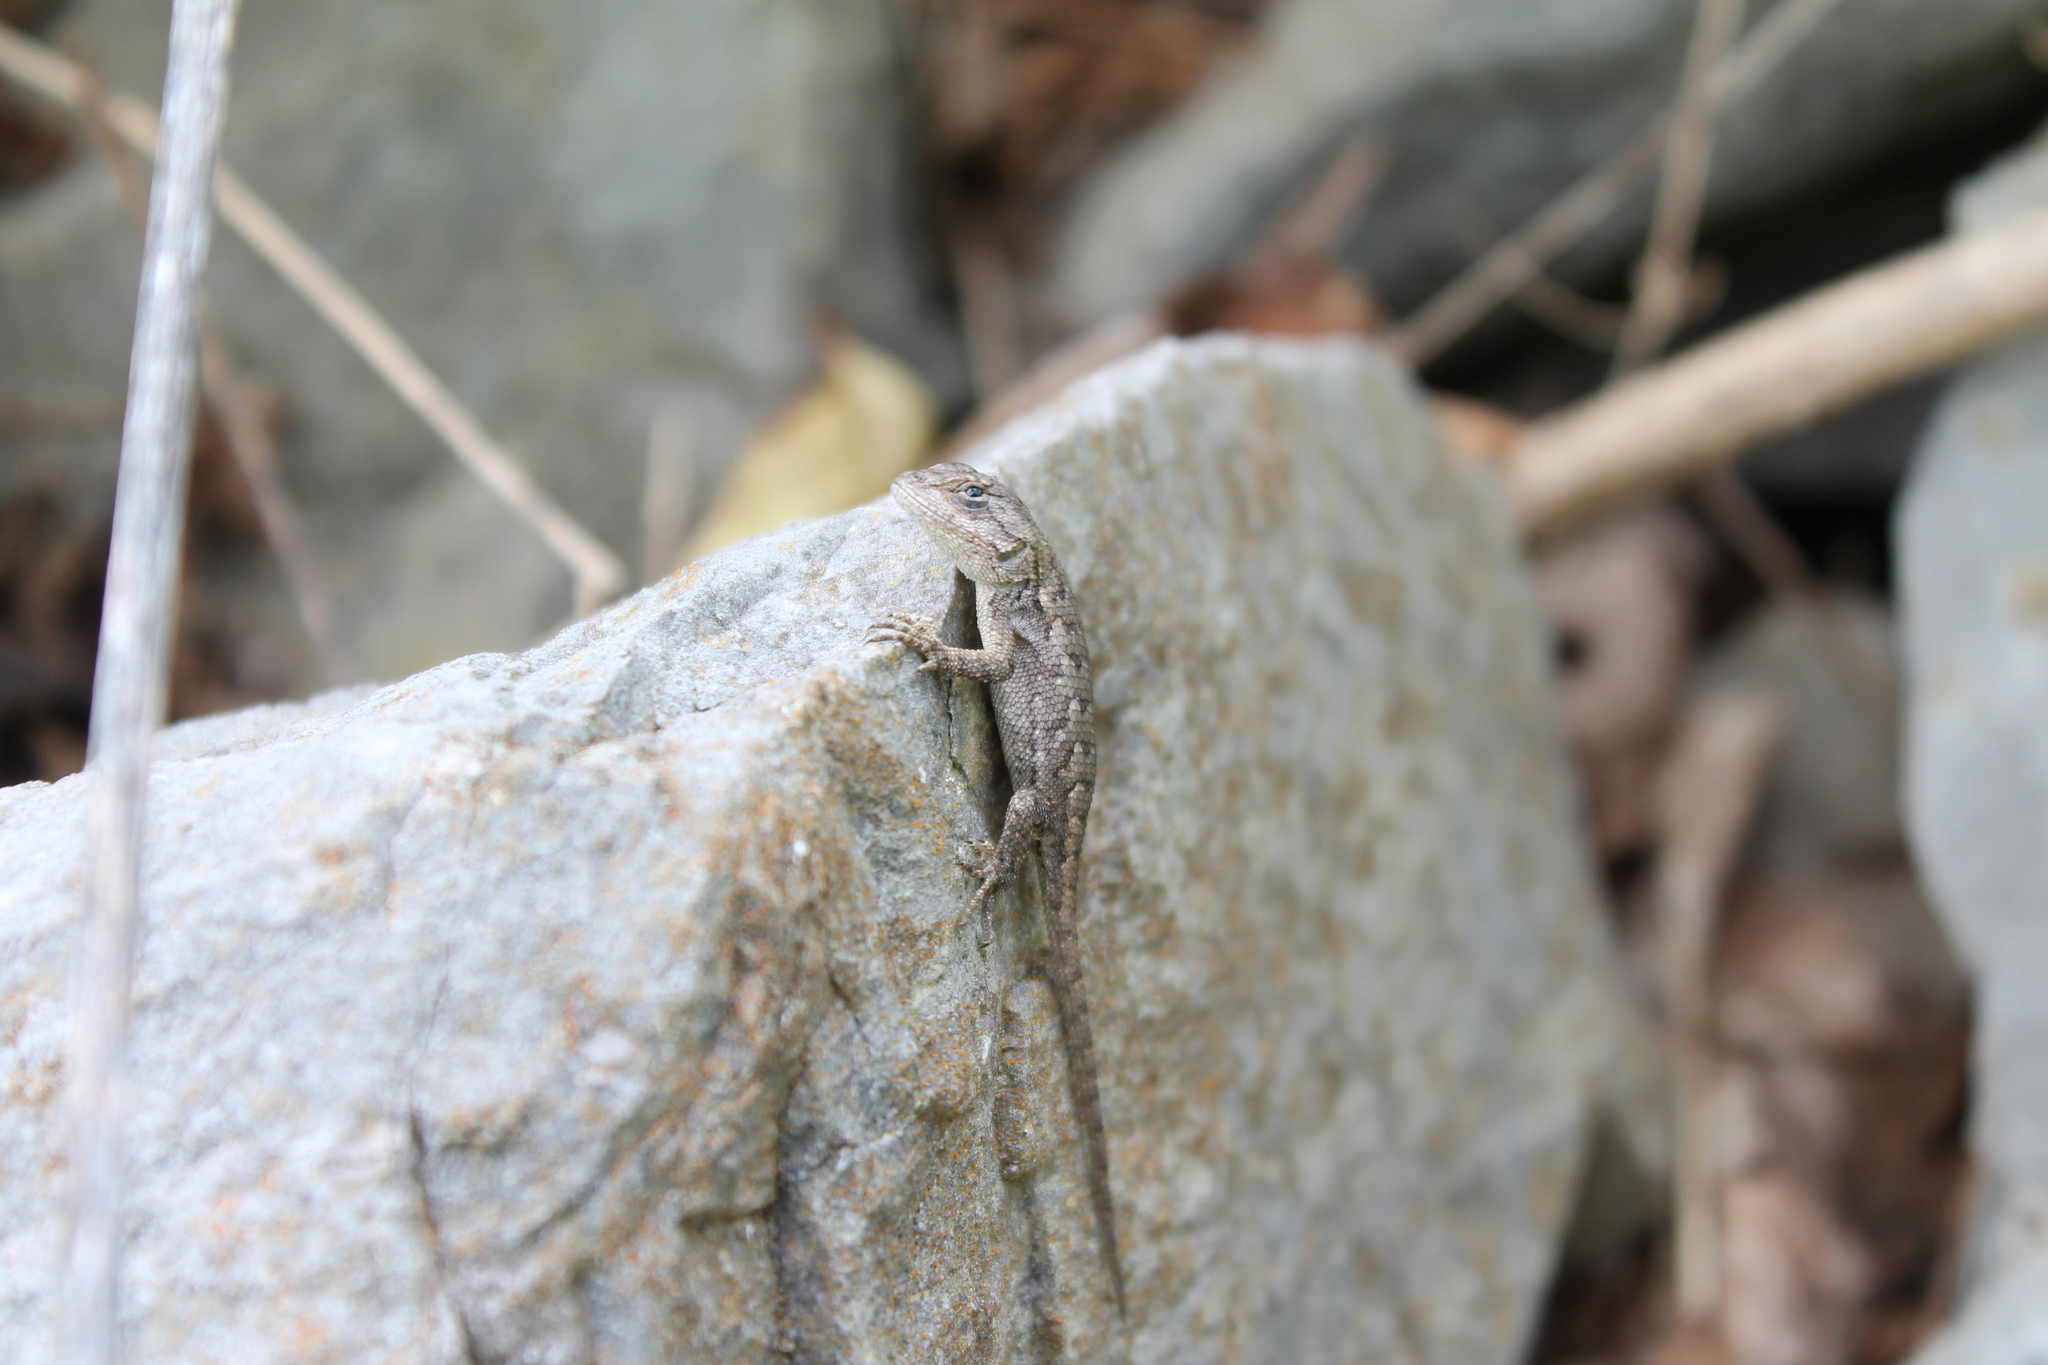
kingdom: Animalia
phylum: Chordata
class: Squamata
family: Phrynosomatidae
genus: Sceloporus
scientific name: Sceloporus undulatus
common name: Eastern fence lizard
